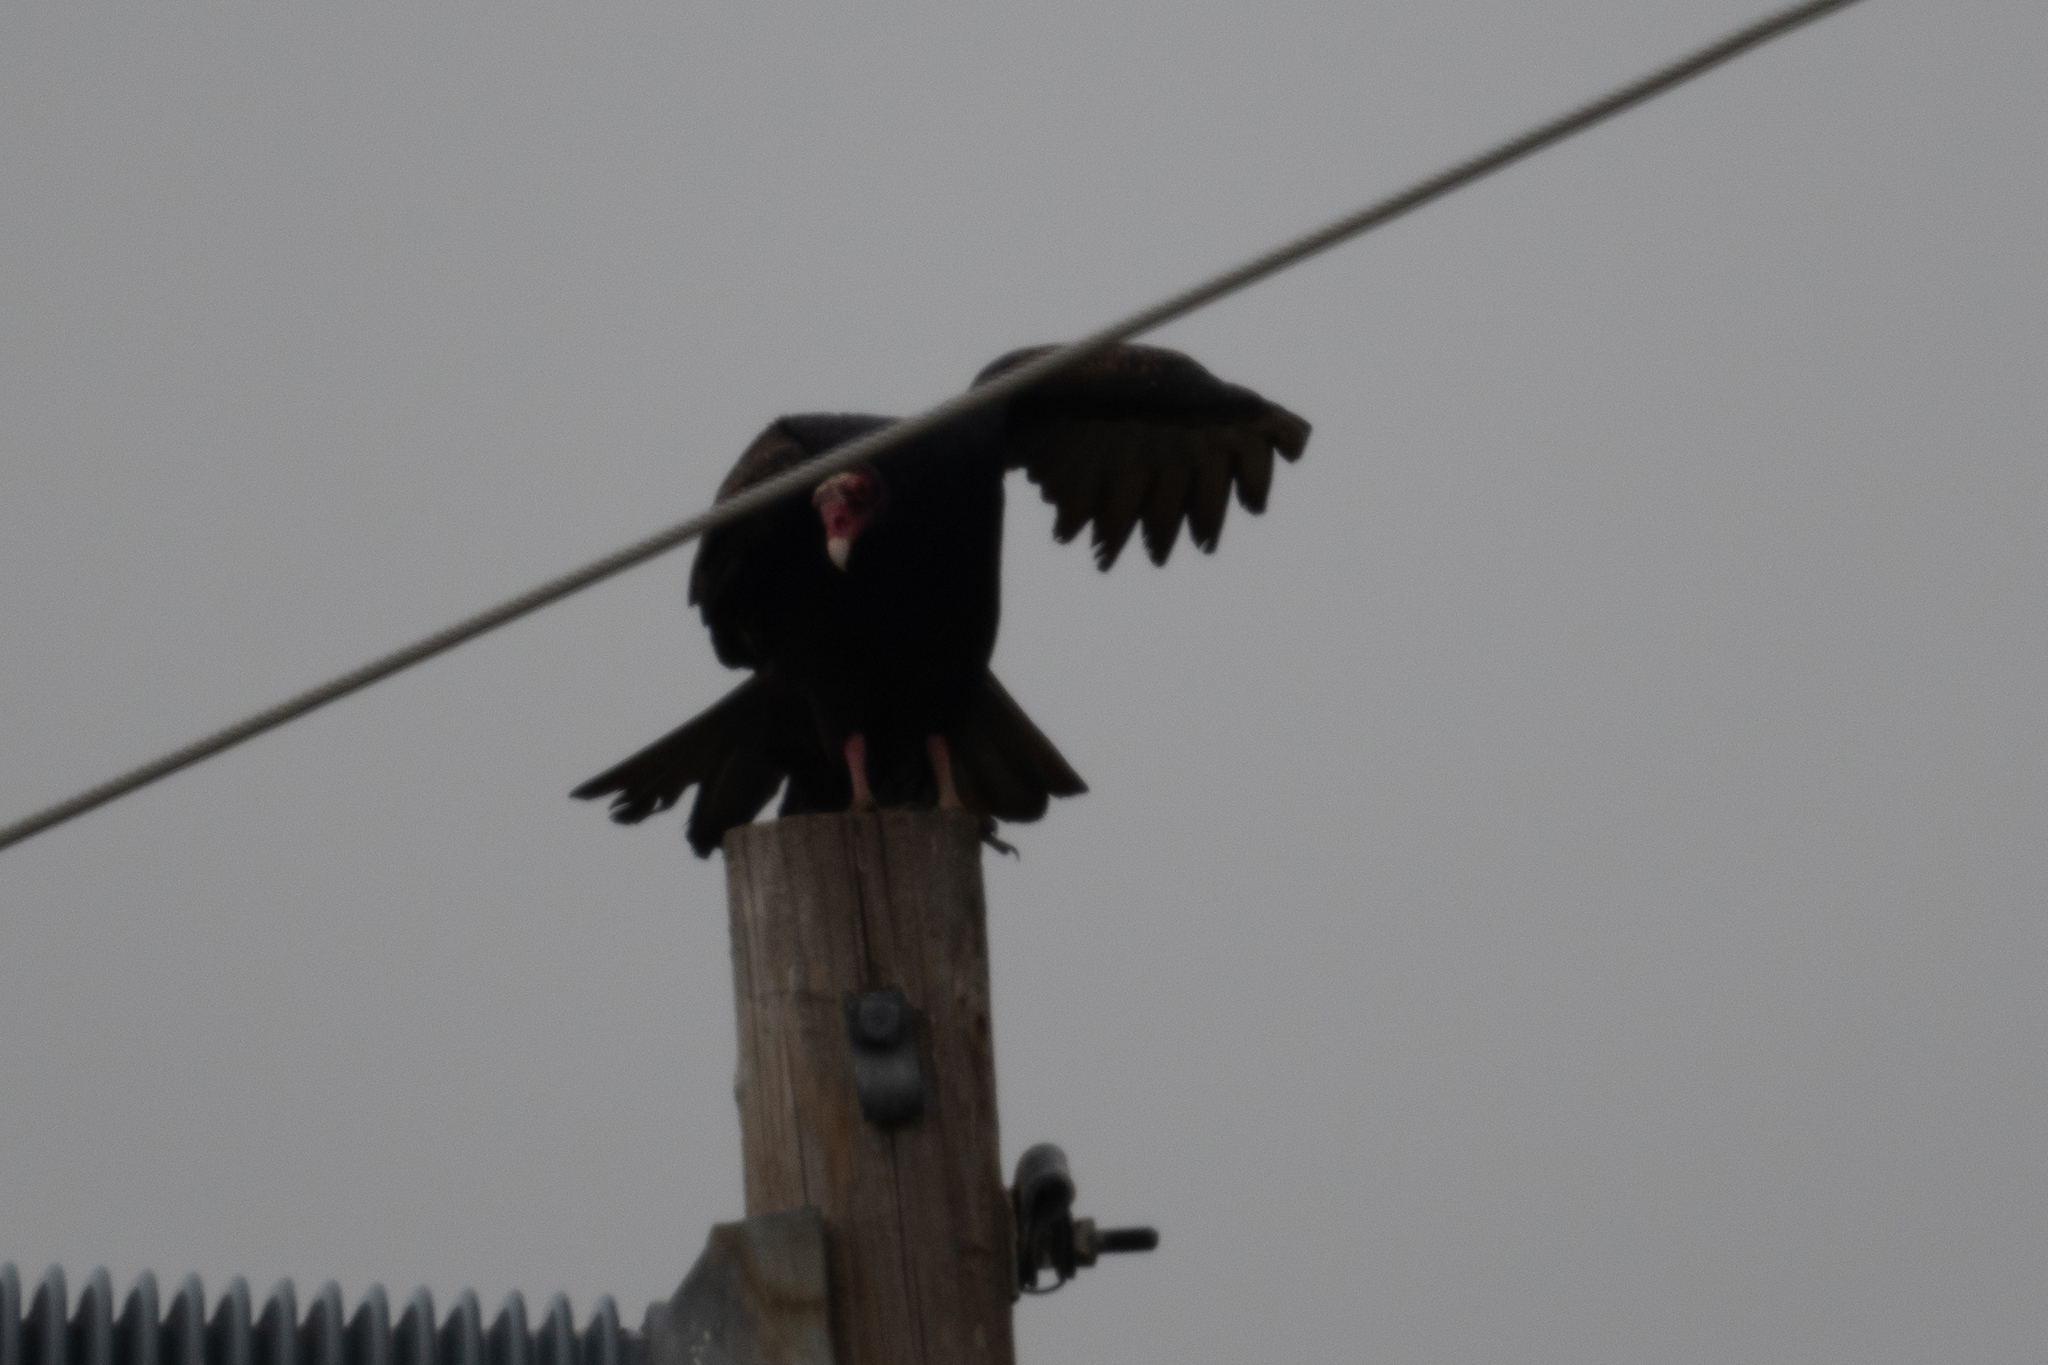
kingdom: Animalia
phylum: Chordata
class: Aves
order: Accipitriformes
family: Cathartidae
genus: Cathartes
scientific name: Cathartes aura
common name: Turkey vulture
